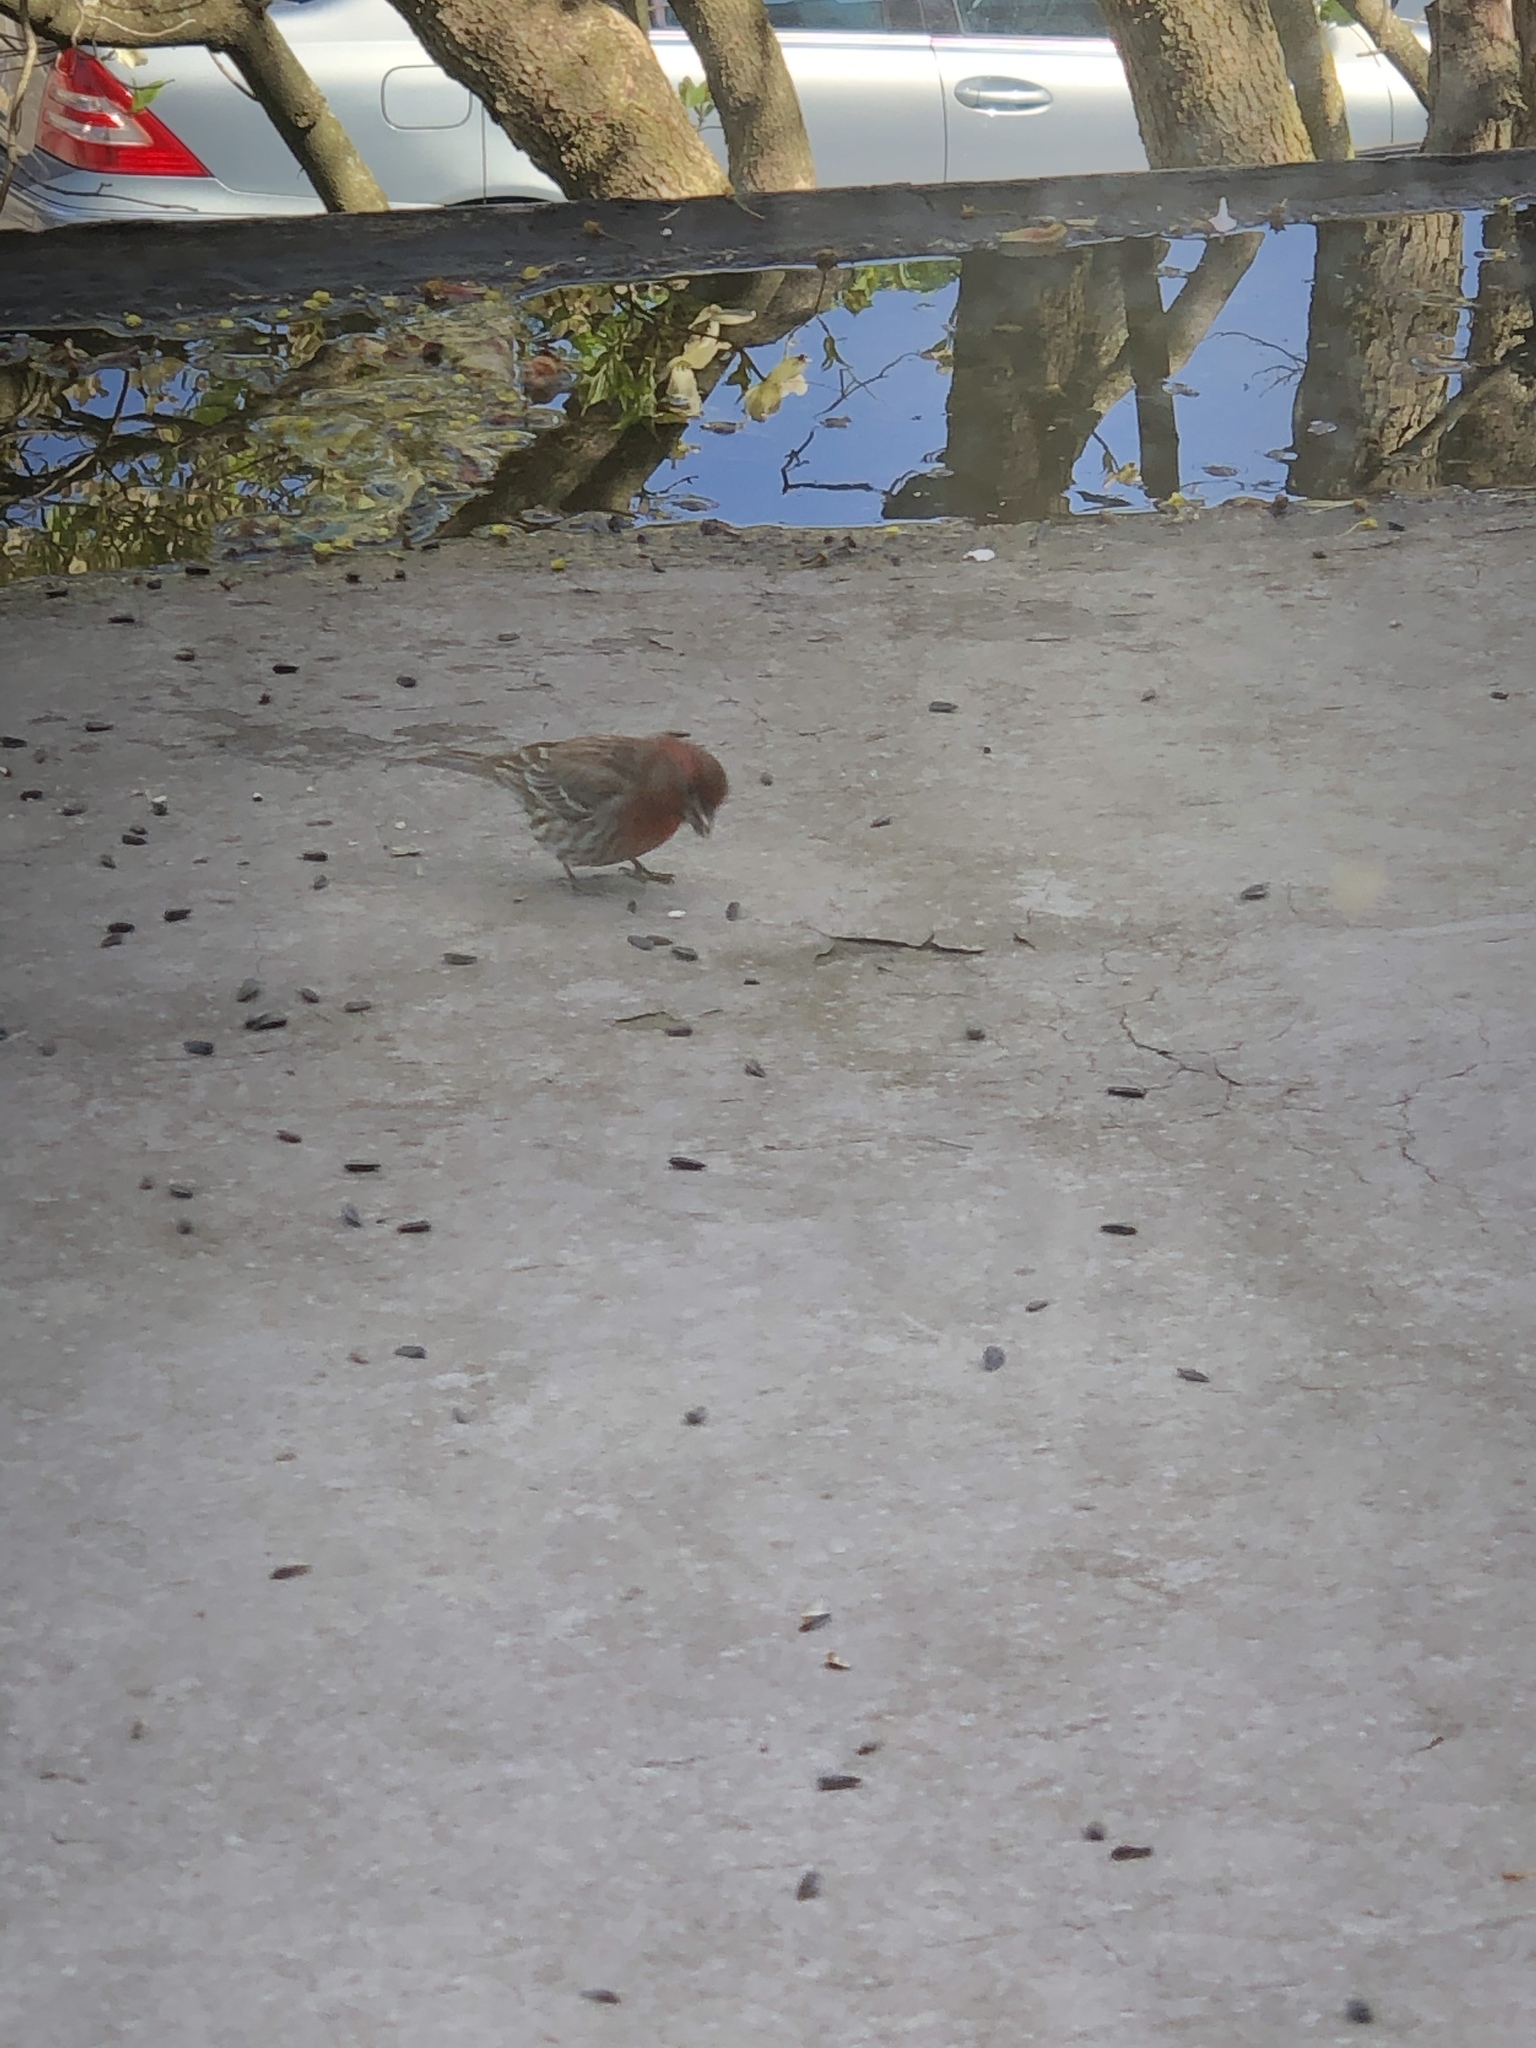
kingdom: Animalia
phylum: Chordata
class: Aves
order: Passeriformes
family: Fringillidae
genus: Haemorhous
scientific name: Haemorhous mexicanus
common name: House finch
